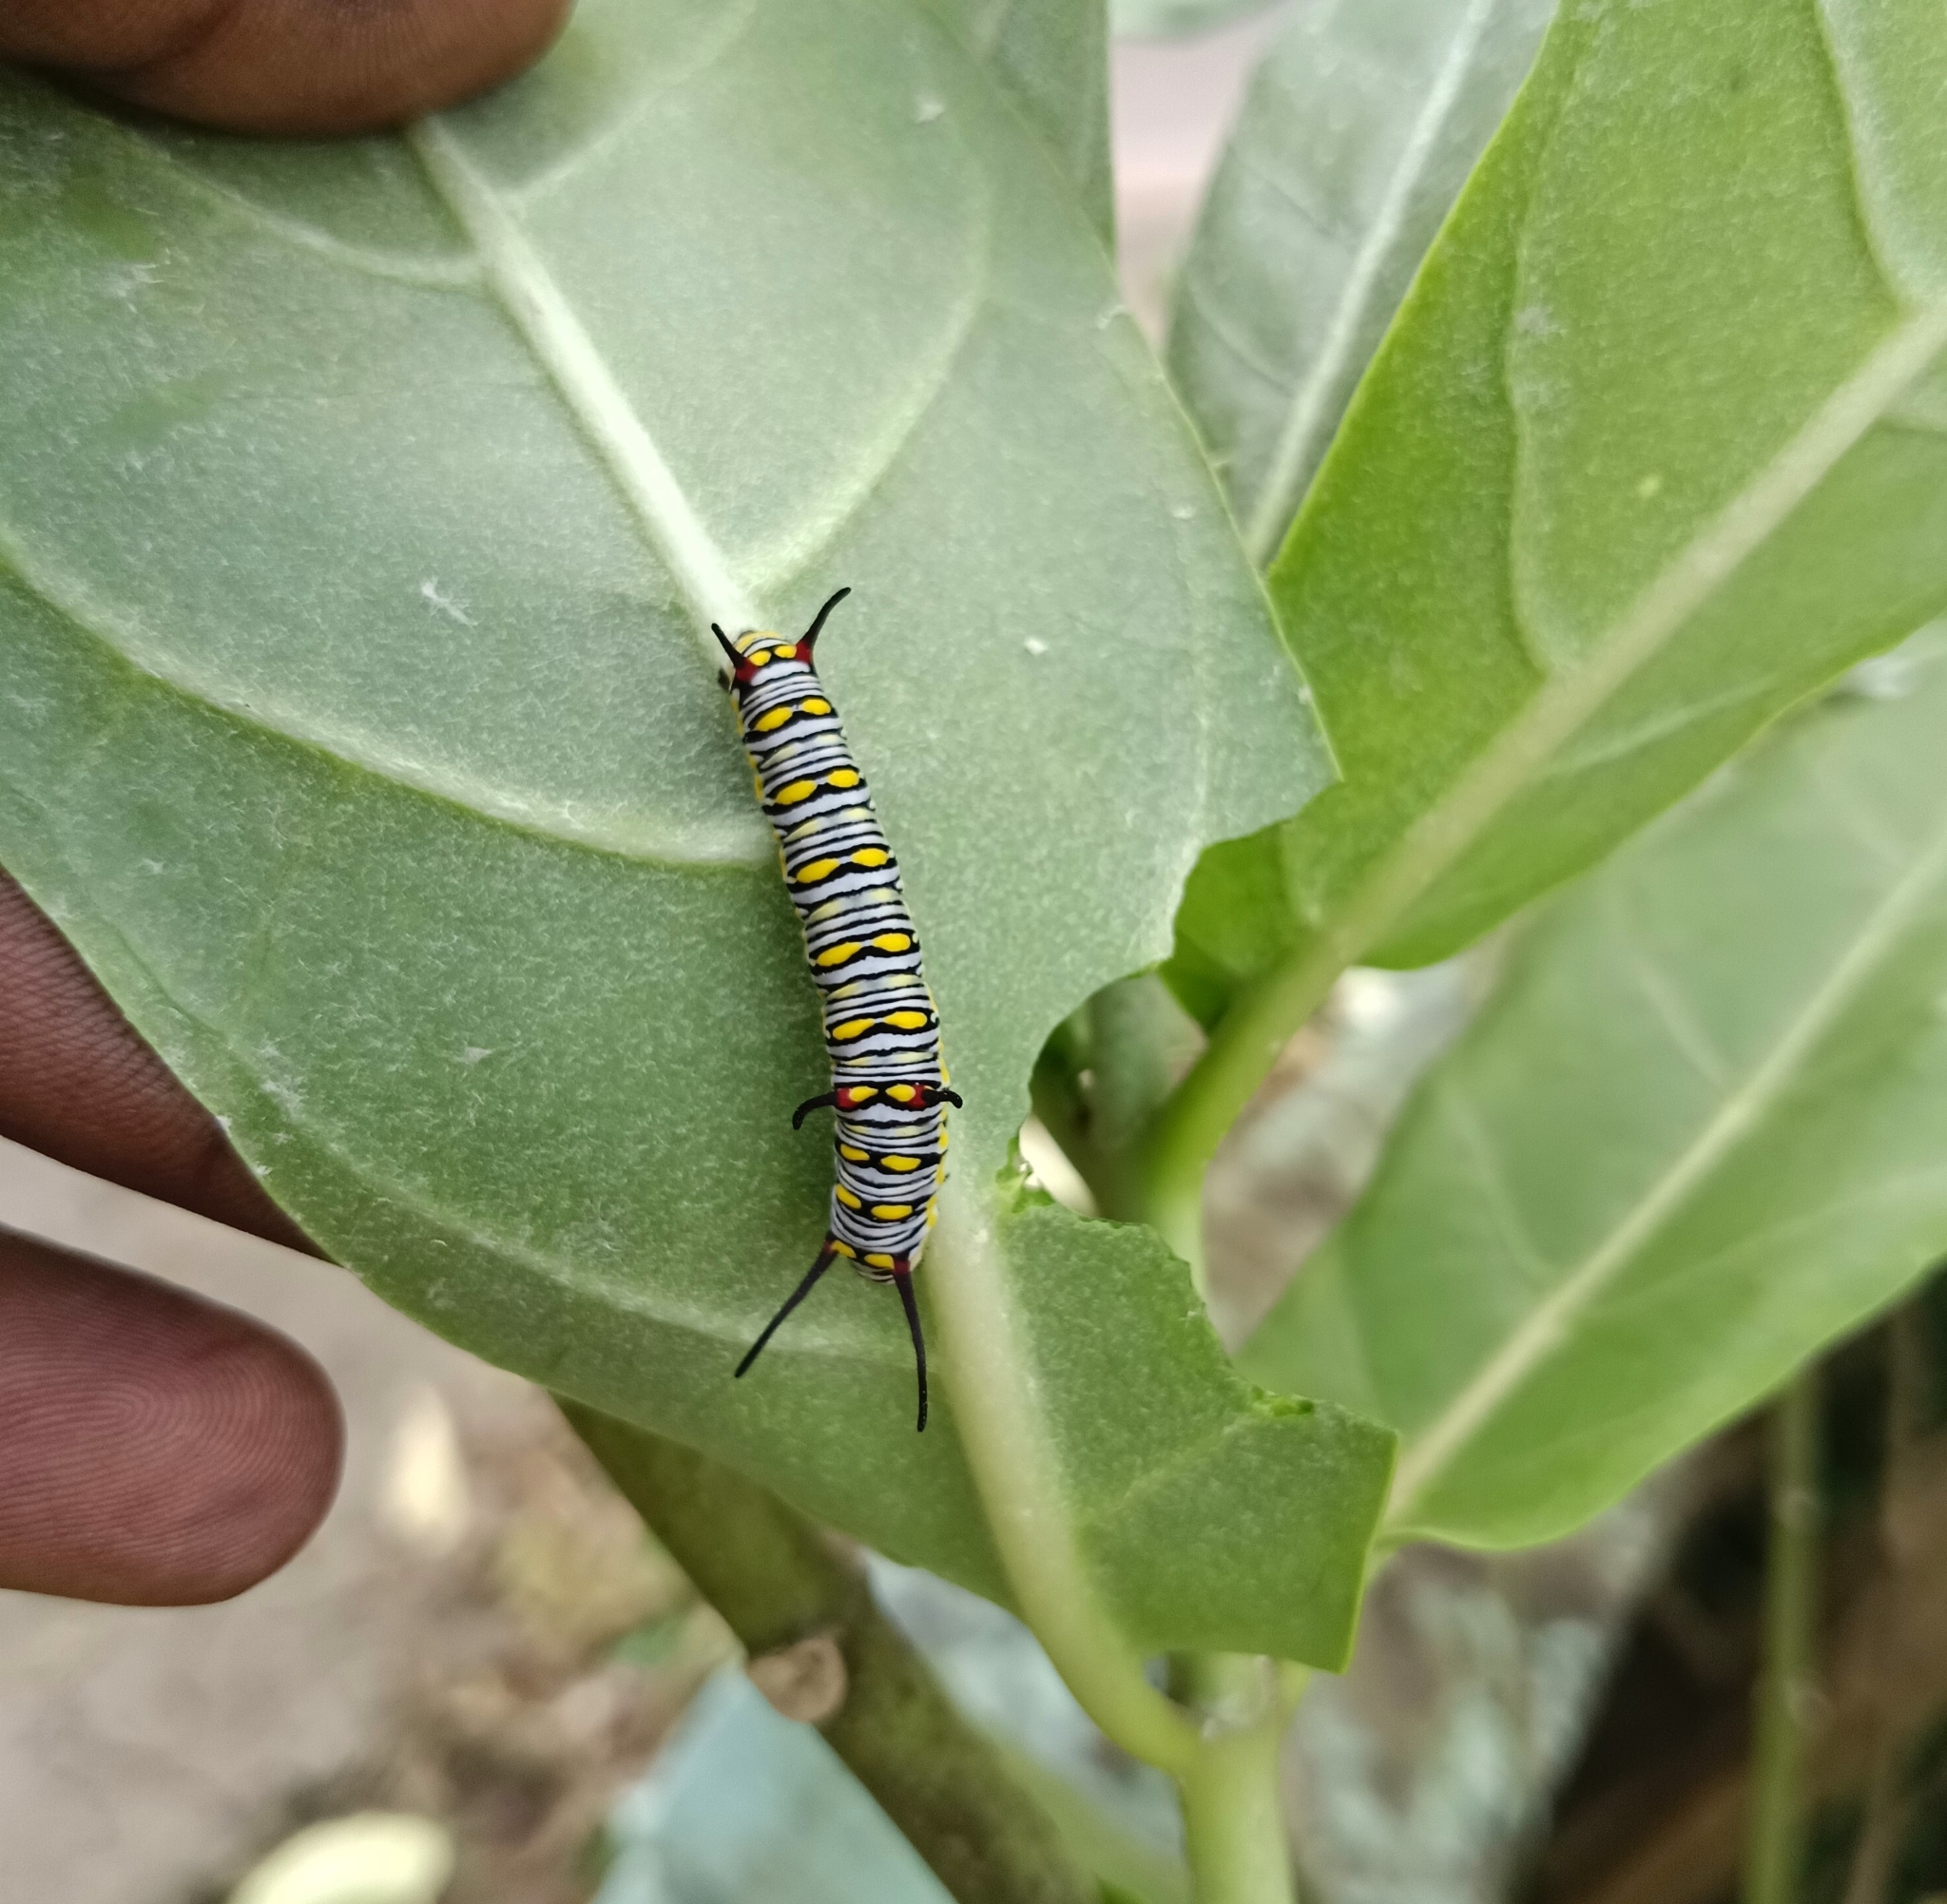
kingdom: Animalia
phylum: Arthropoda
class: Insecta
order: Lepidoptera
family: Nymphalidae
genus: Danaus
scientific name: Danaus chrysippus
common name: Plain tiger
